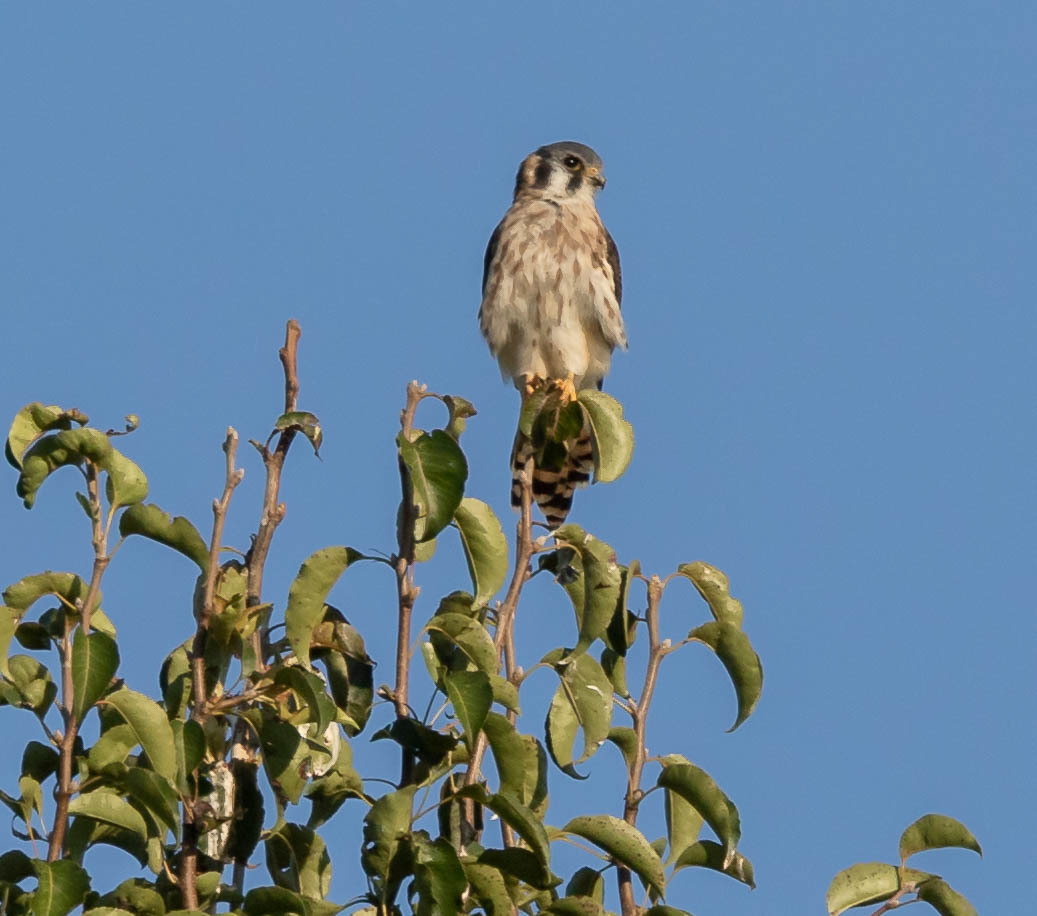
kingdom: Animalia
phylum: Chordata
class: Aves
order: Falconiformes
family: Falconidae
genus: Falco
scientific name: Falco sparverius
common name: American kestrel
